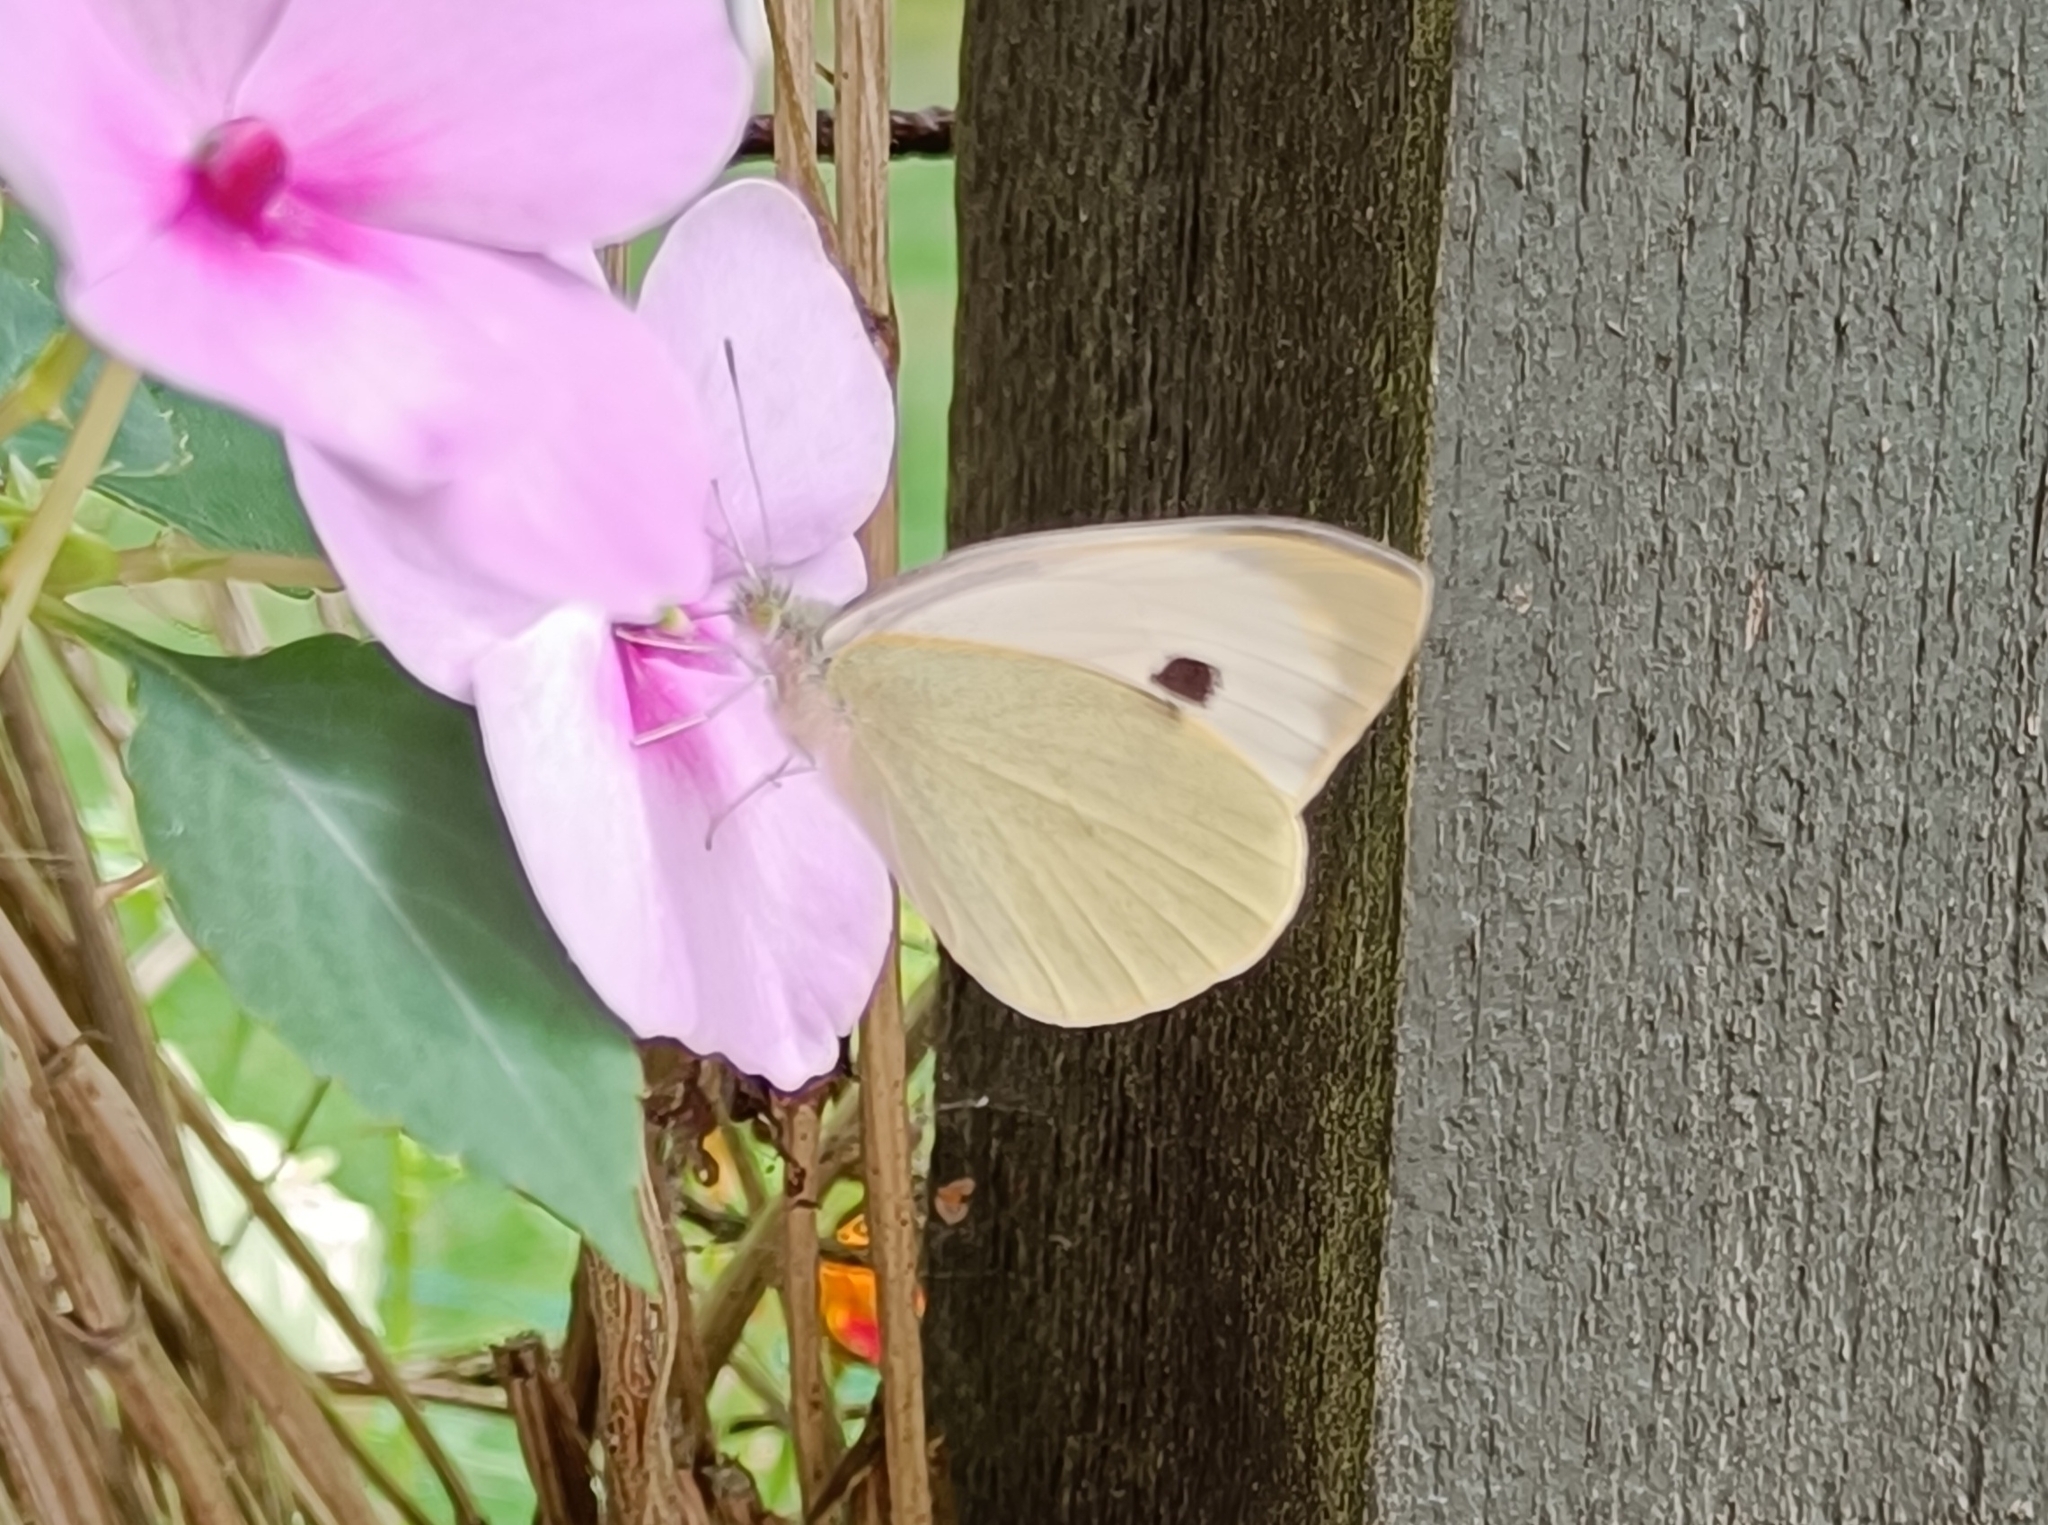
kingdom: Animalia
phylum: Arthropoda
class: Insecta
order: Lepidoptera
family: Pieridae
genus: Pieris
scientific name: Pieris brassicae
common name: Large white
